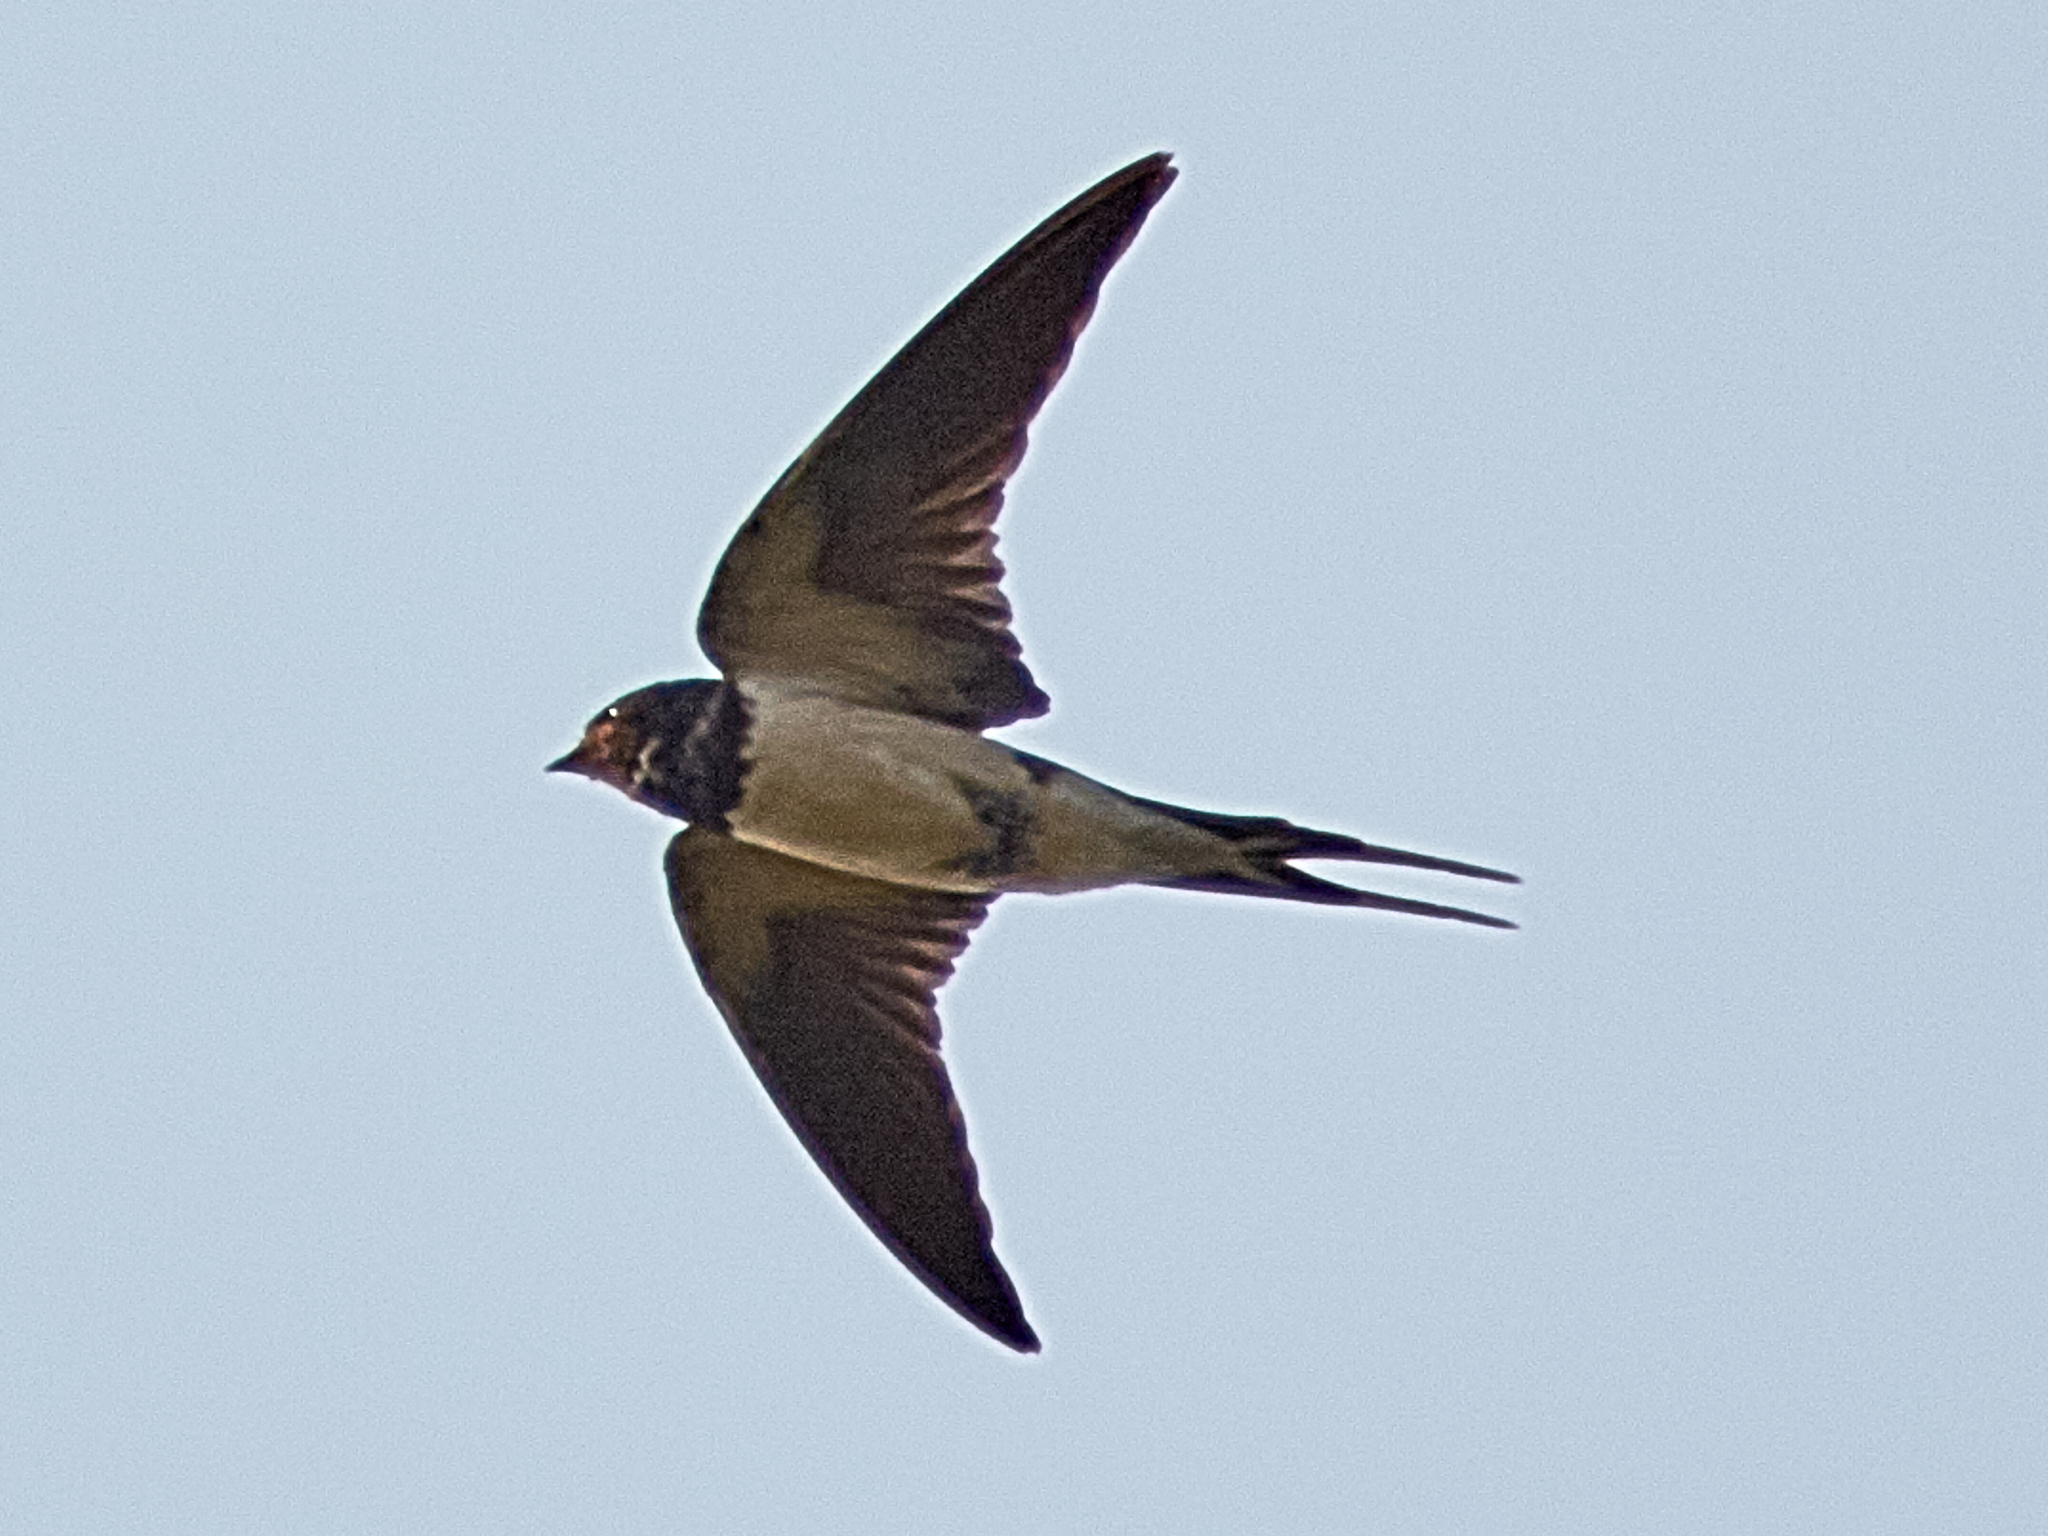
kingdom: Animalia
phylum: Chordata
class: Aves
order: Passeriformes
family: Hirundinidae
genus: Hirundo
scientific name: Hirundo rustica
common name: Barn swallow
